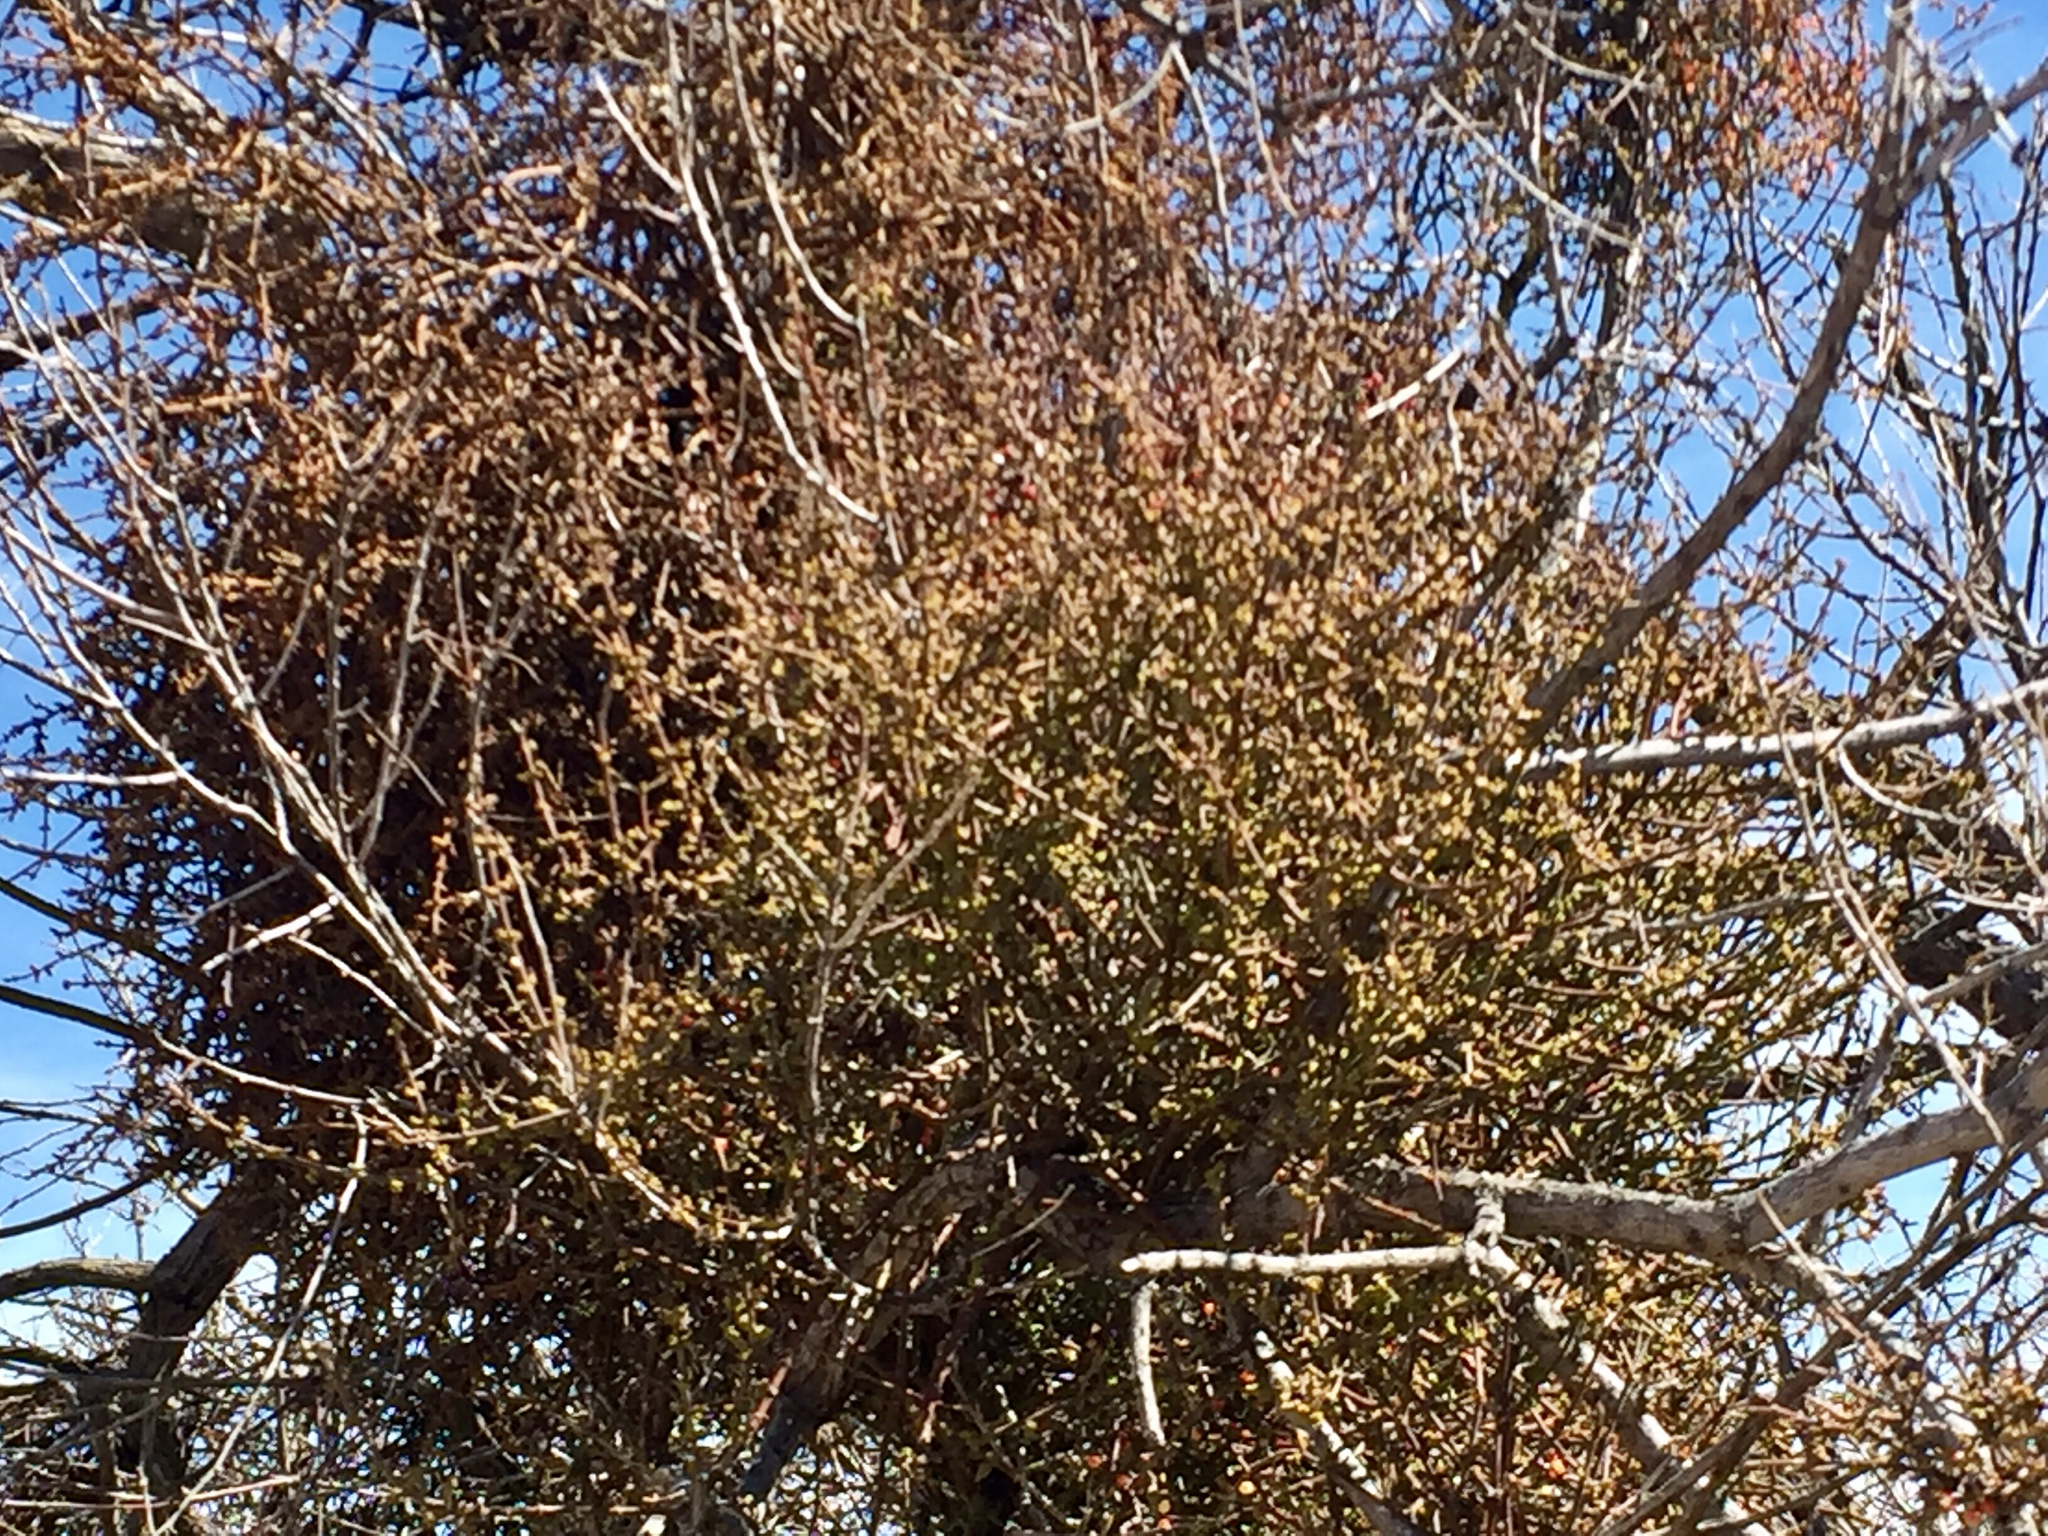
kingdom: Plantae
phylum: Tracheophyta
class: Magnoliopsida
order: Santalales
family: Viscaceae
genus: Phoradendron
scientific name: Phoradendron californicum
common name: Acacia mistletoe
